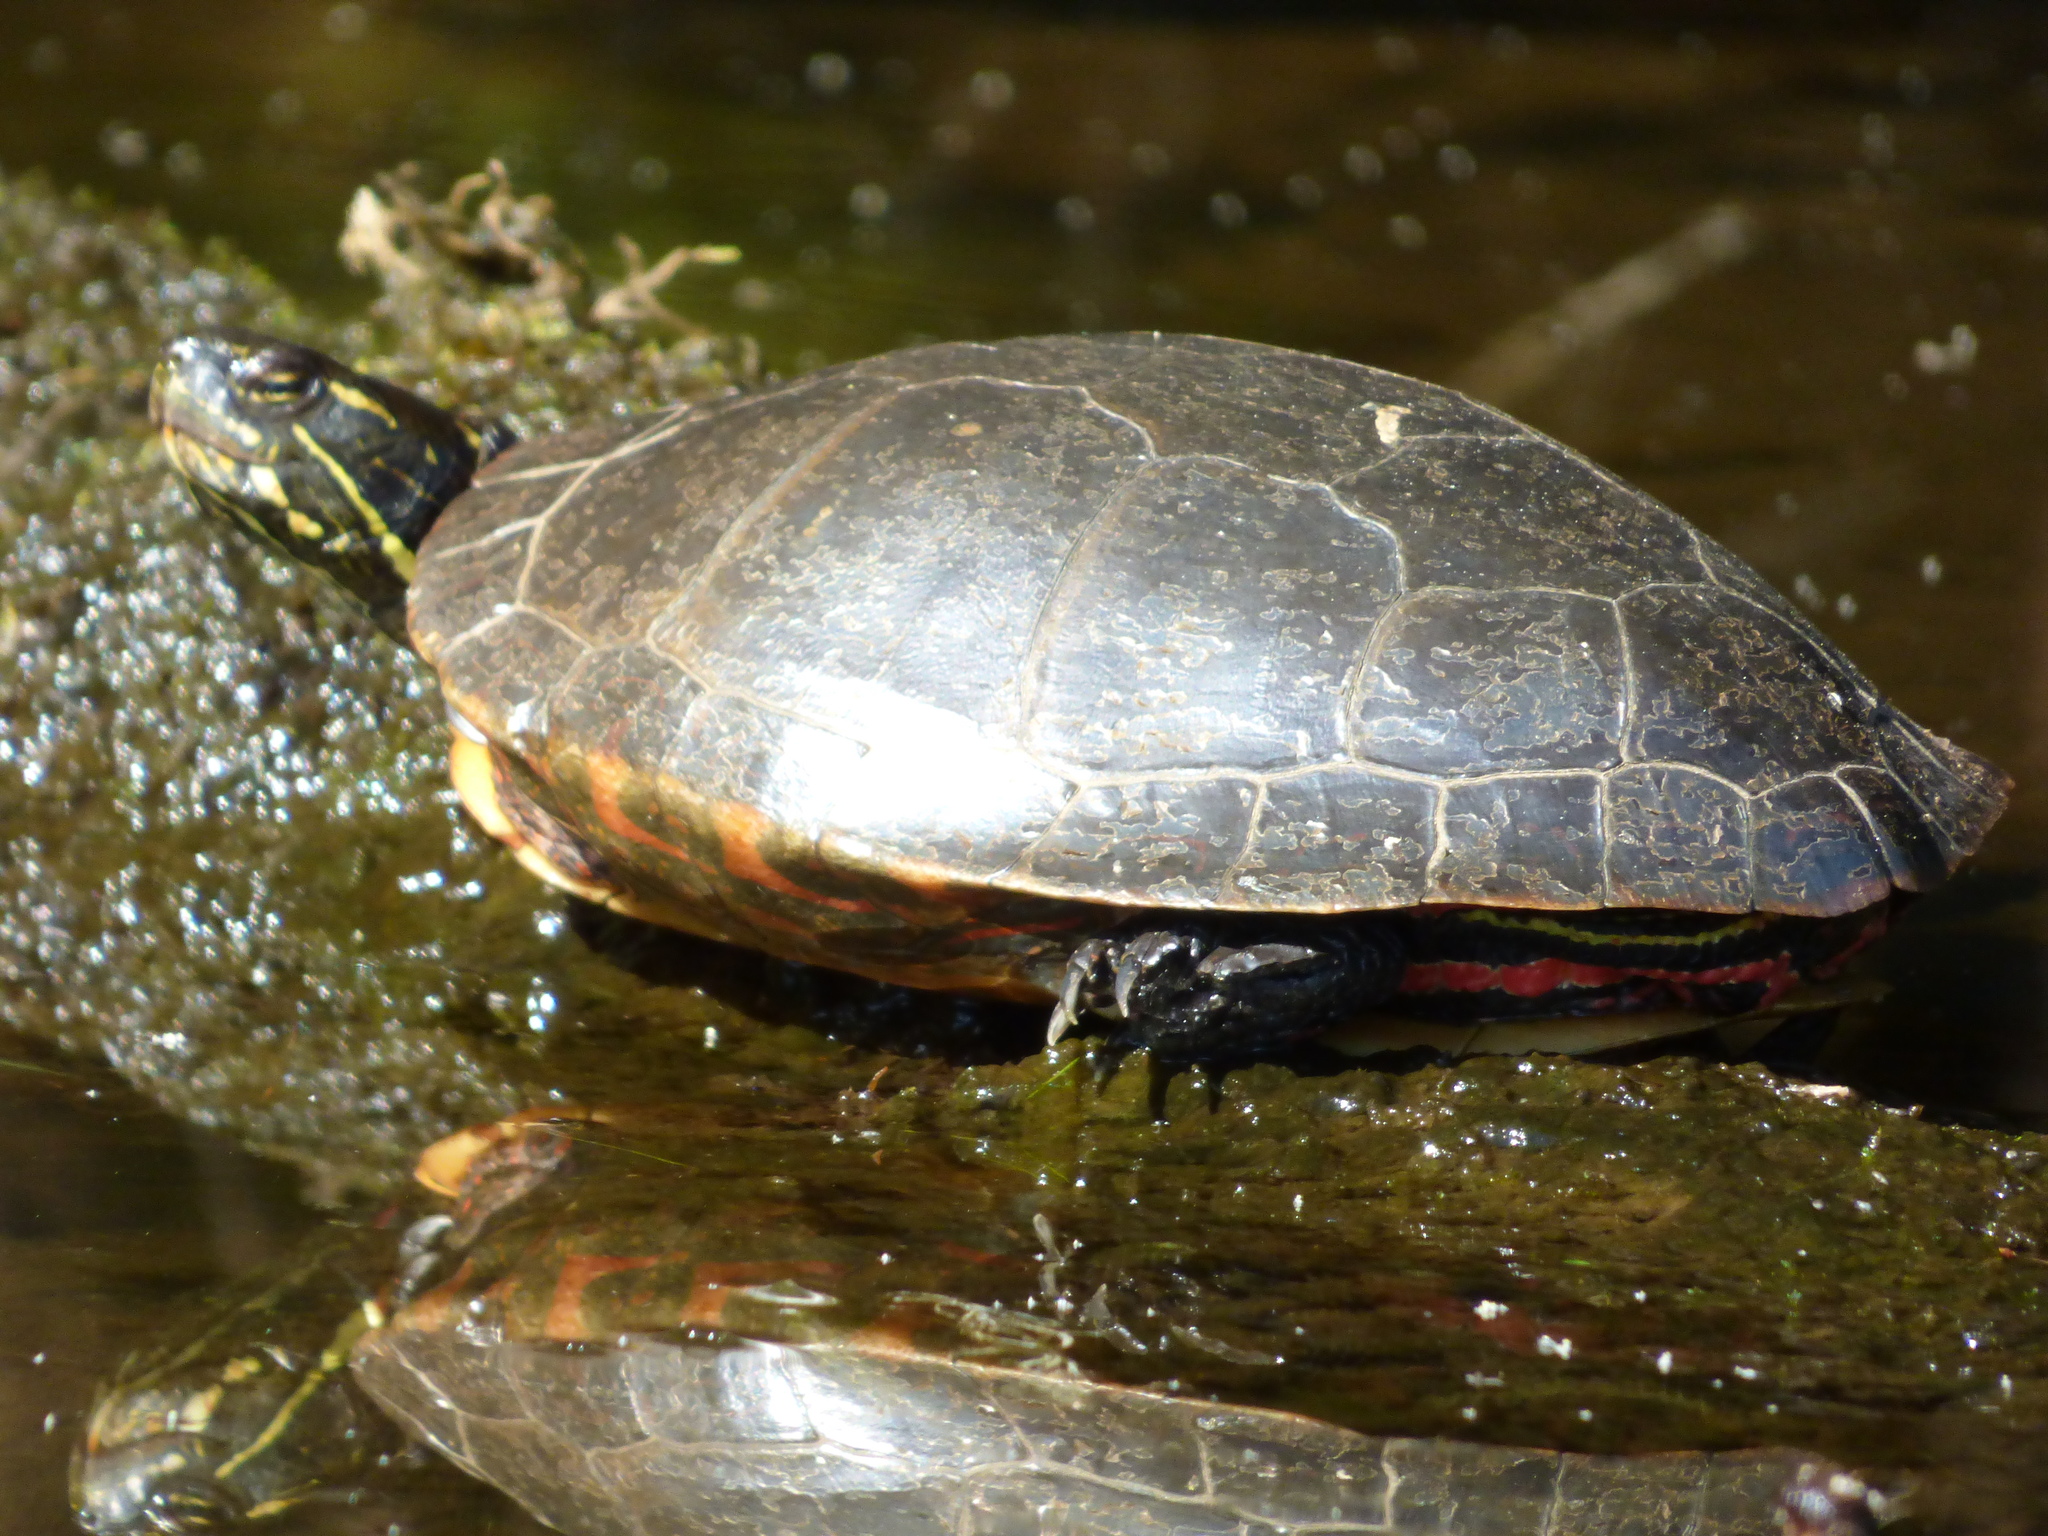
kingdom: Animalia
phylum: Chordata
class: Testudines
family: Emydidae
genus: Chrysemys
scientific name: Chrysemys picta
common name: Painted turtle
